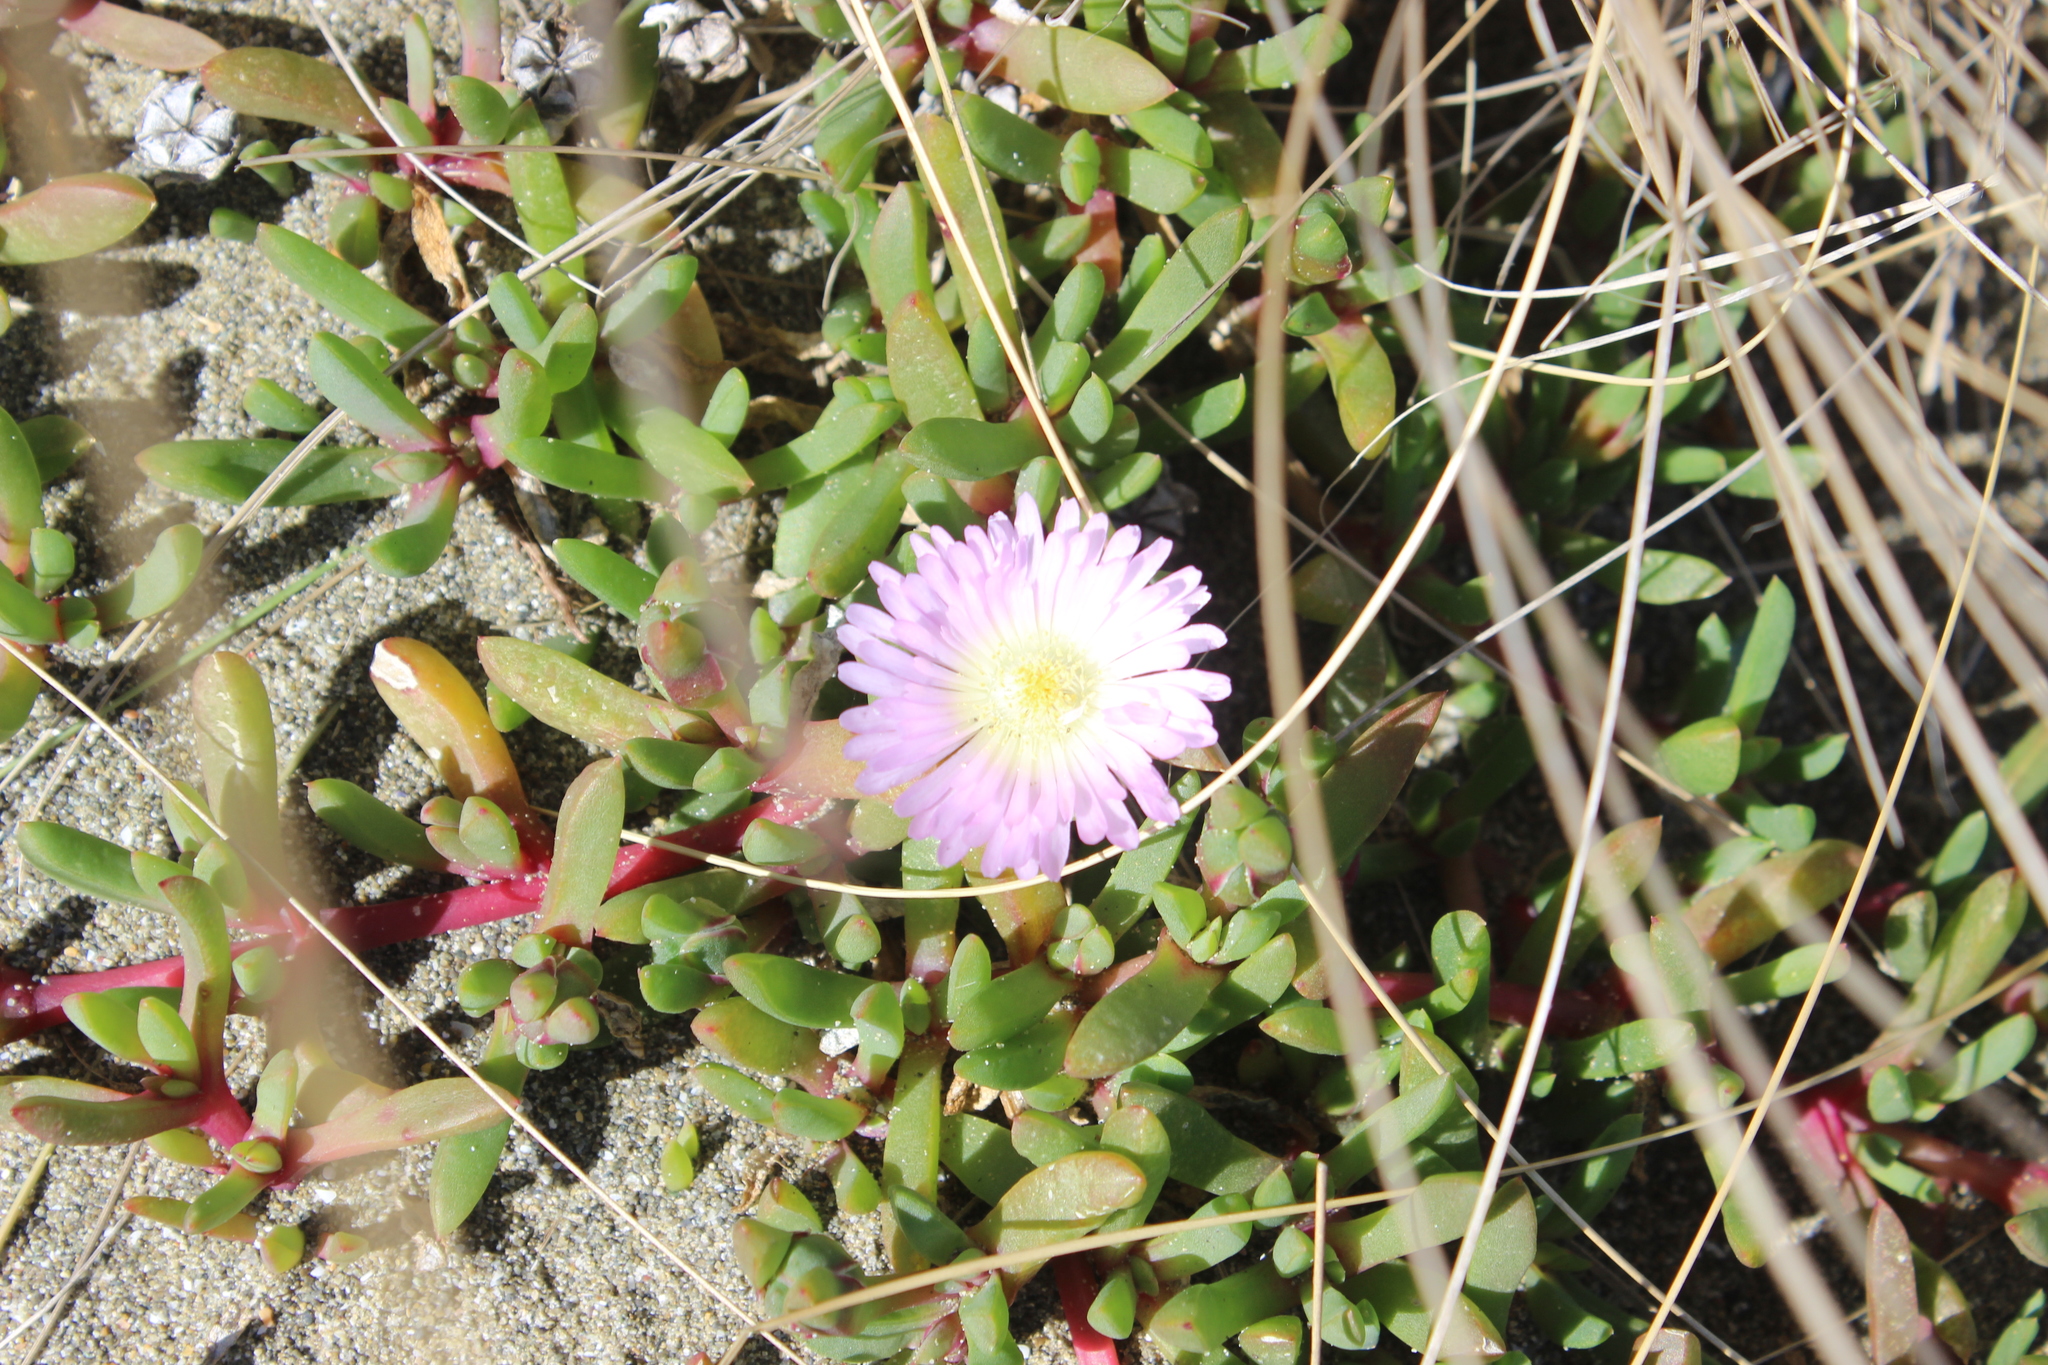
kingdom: Plantae
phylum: Tracheophyta
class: Magnoliopsida
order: Caryophyllales
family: Aizoaceae
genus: Disphyma
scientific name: Disphyma australe
